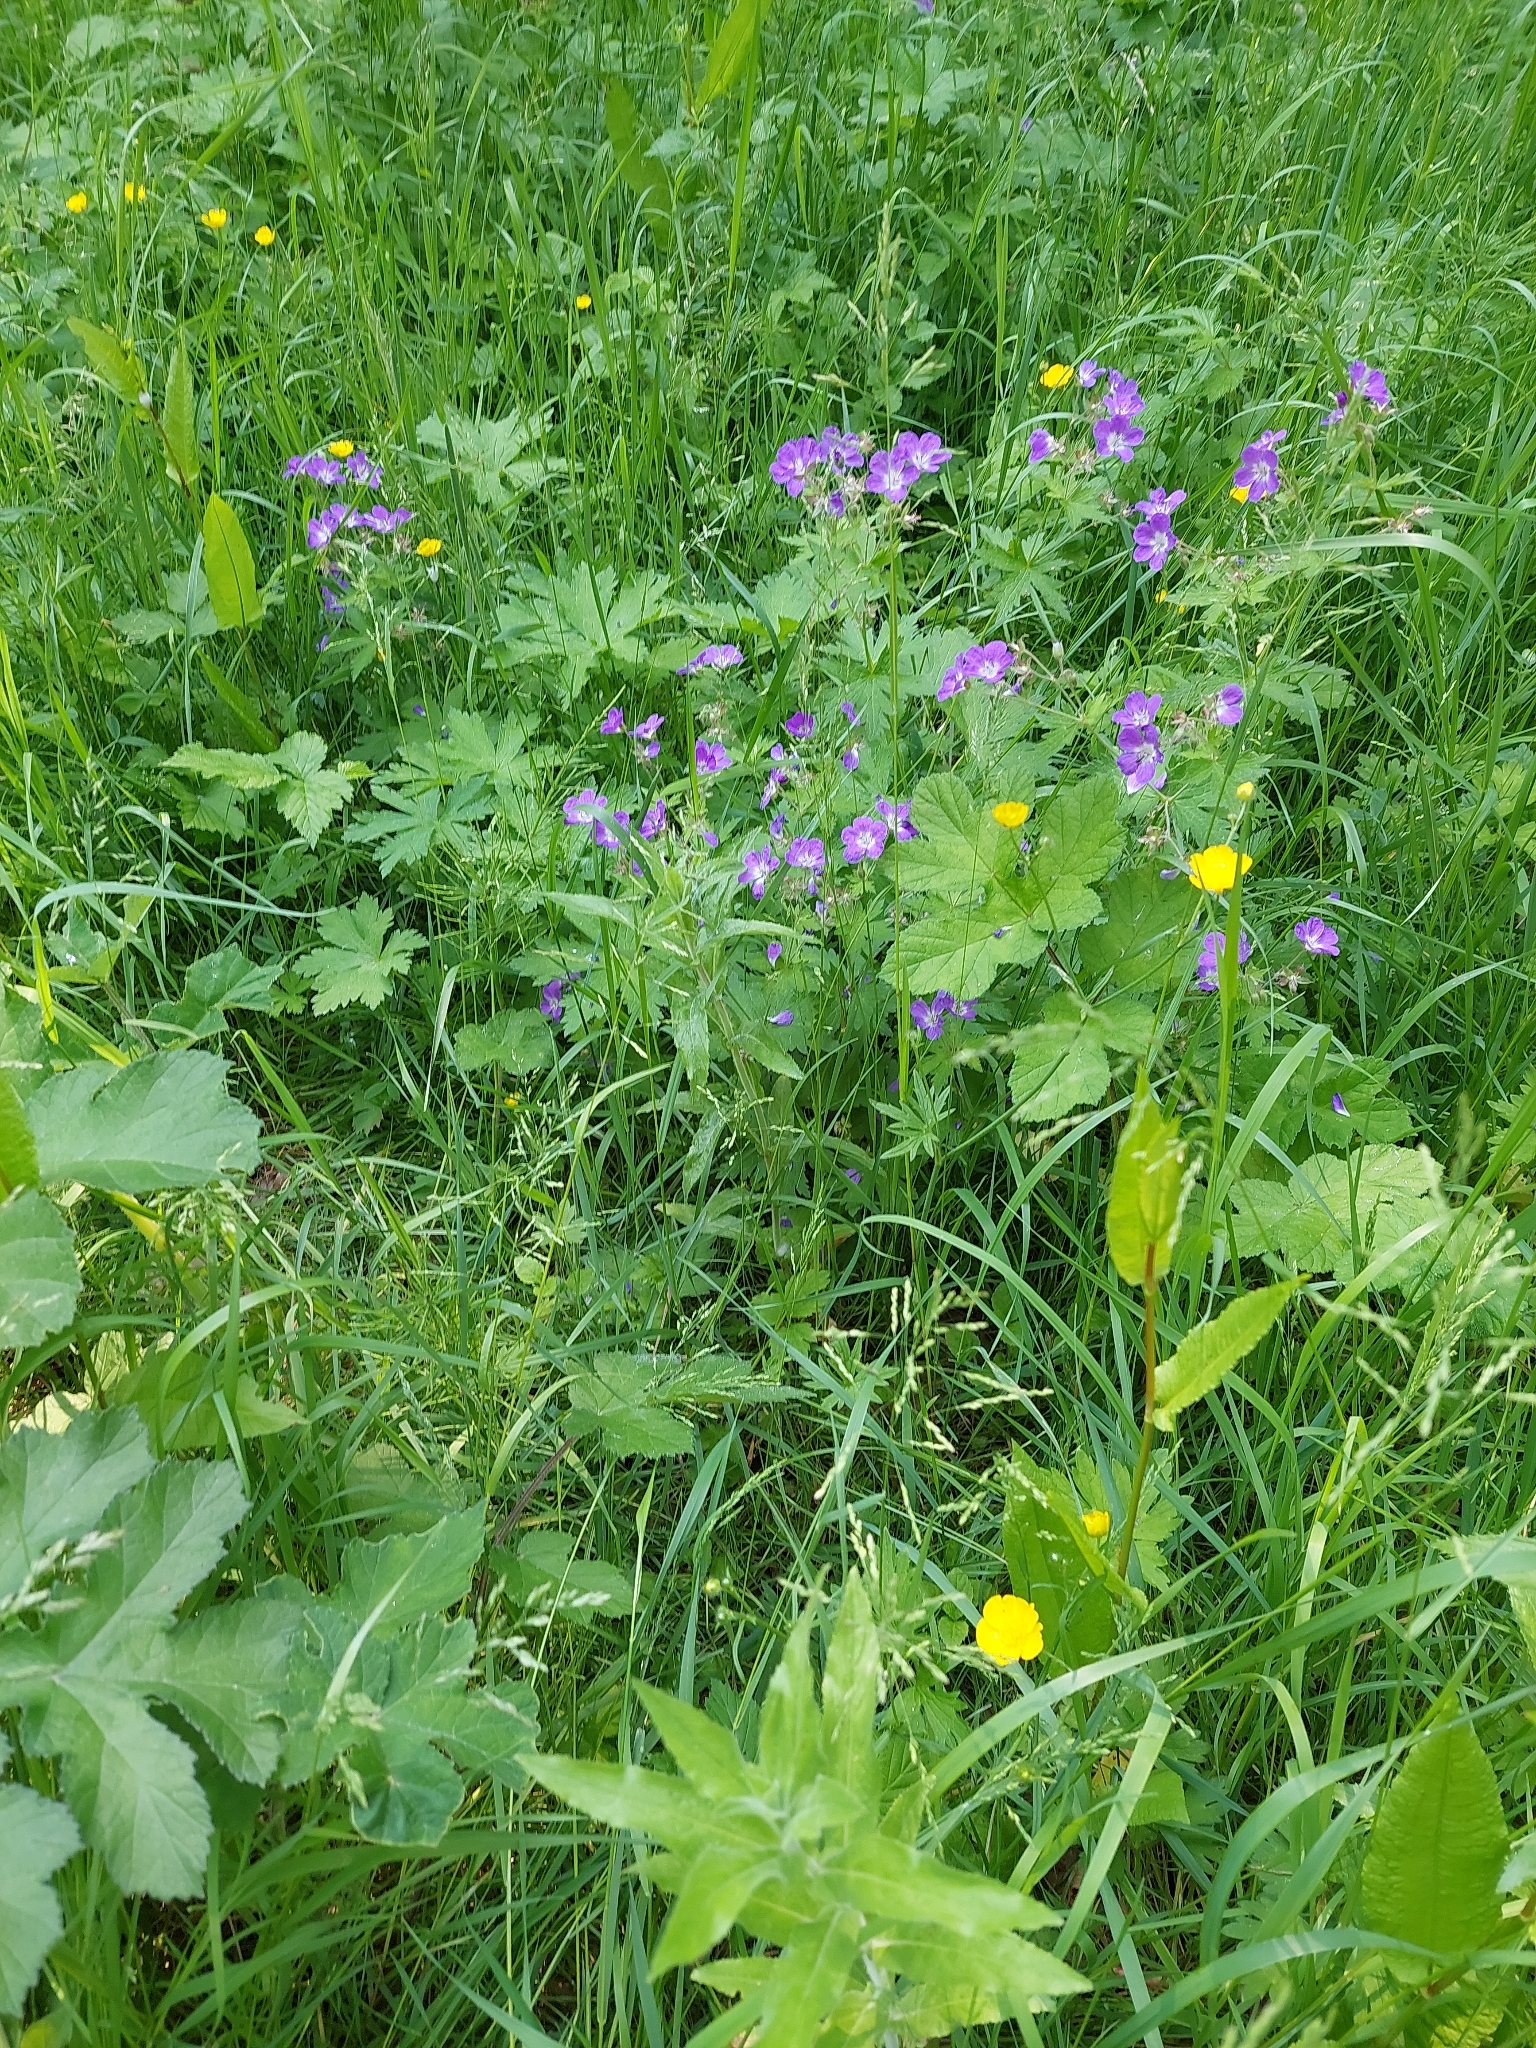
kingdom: Plantae
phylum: Tracheophyta
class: Magnoliopsida
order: Geraniales
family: Geraniaceae
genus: Geranium
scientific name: Geranium sylvaticum
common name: Wood crane's-bill
